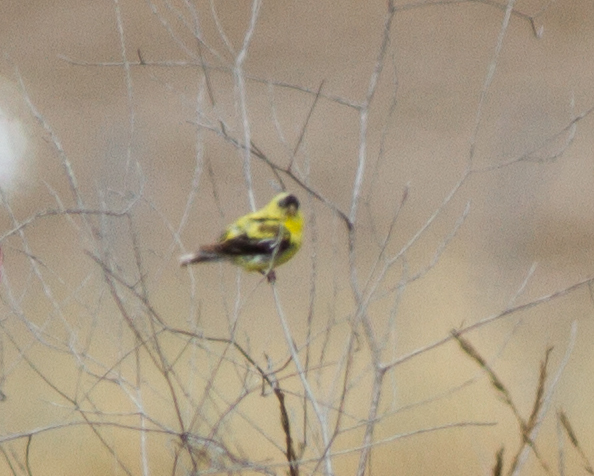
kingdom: Animalia
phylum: Chordata
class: Aves
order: Passeriformes
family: Fringillidae
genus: Spinus
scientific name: Spinus tristis
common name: American goldfinch
